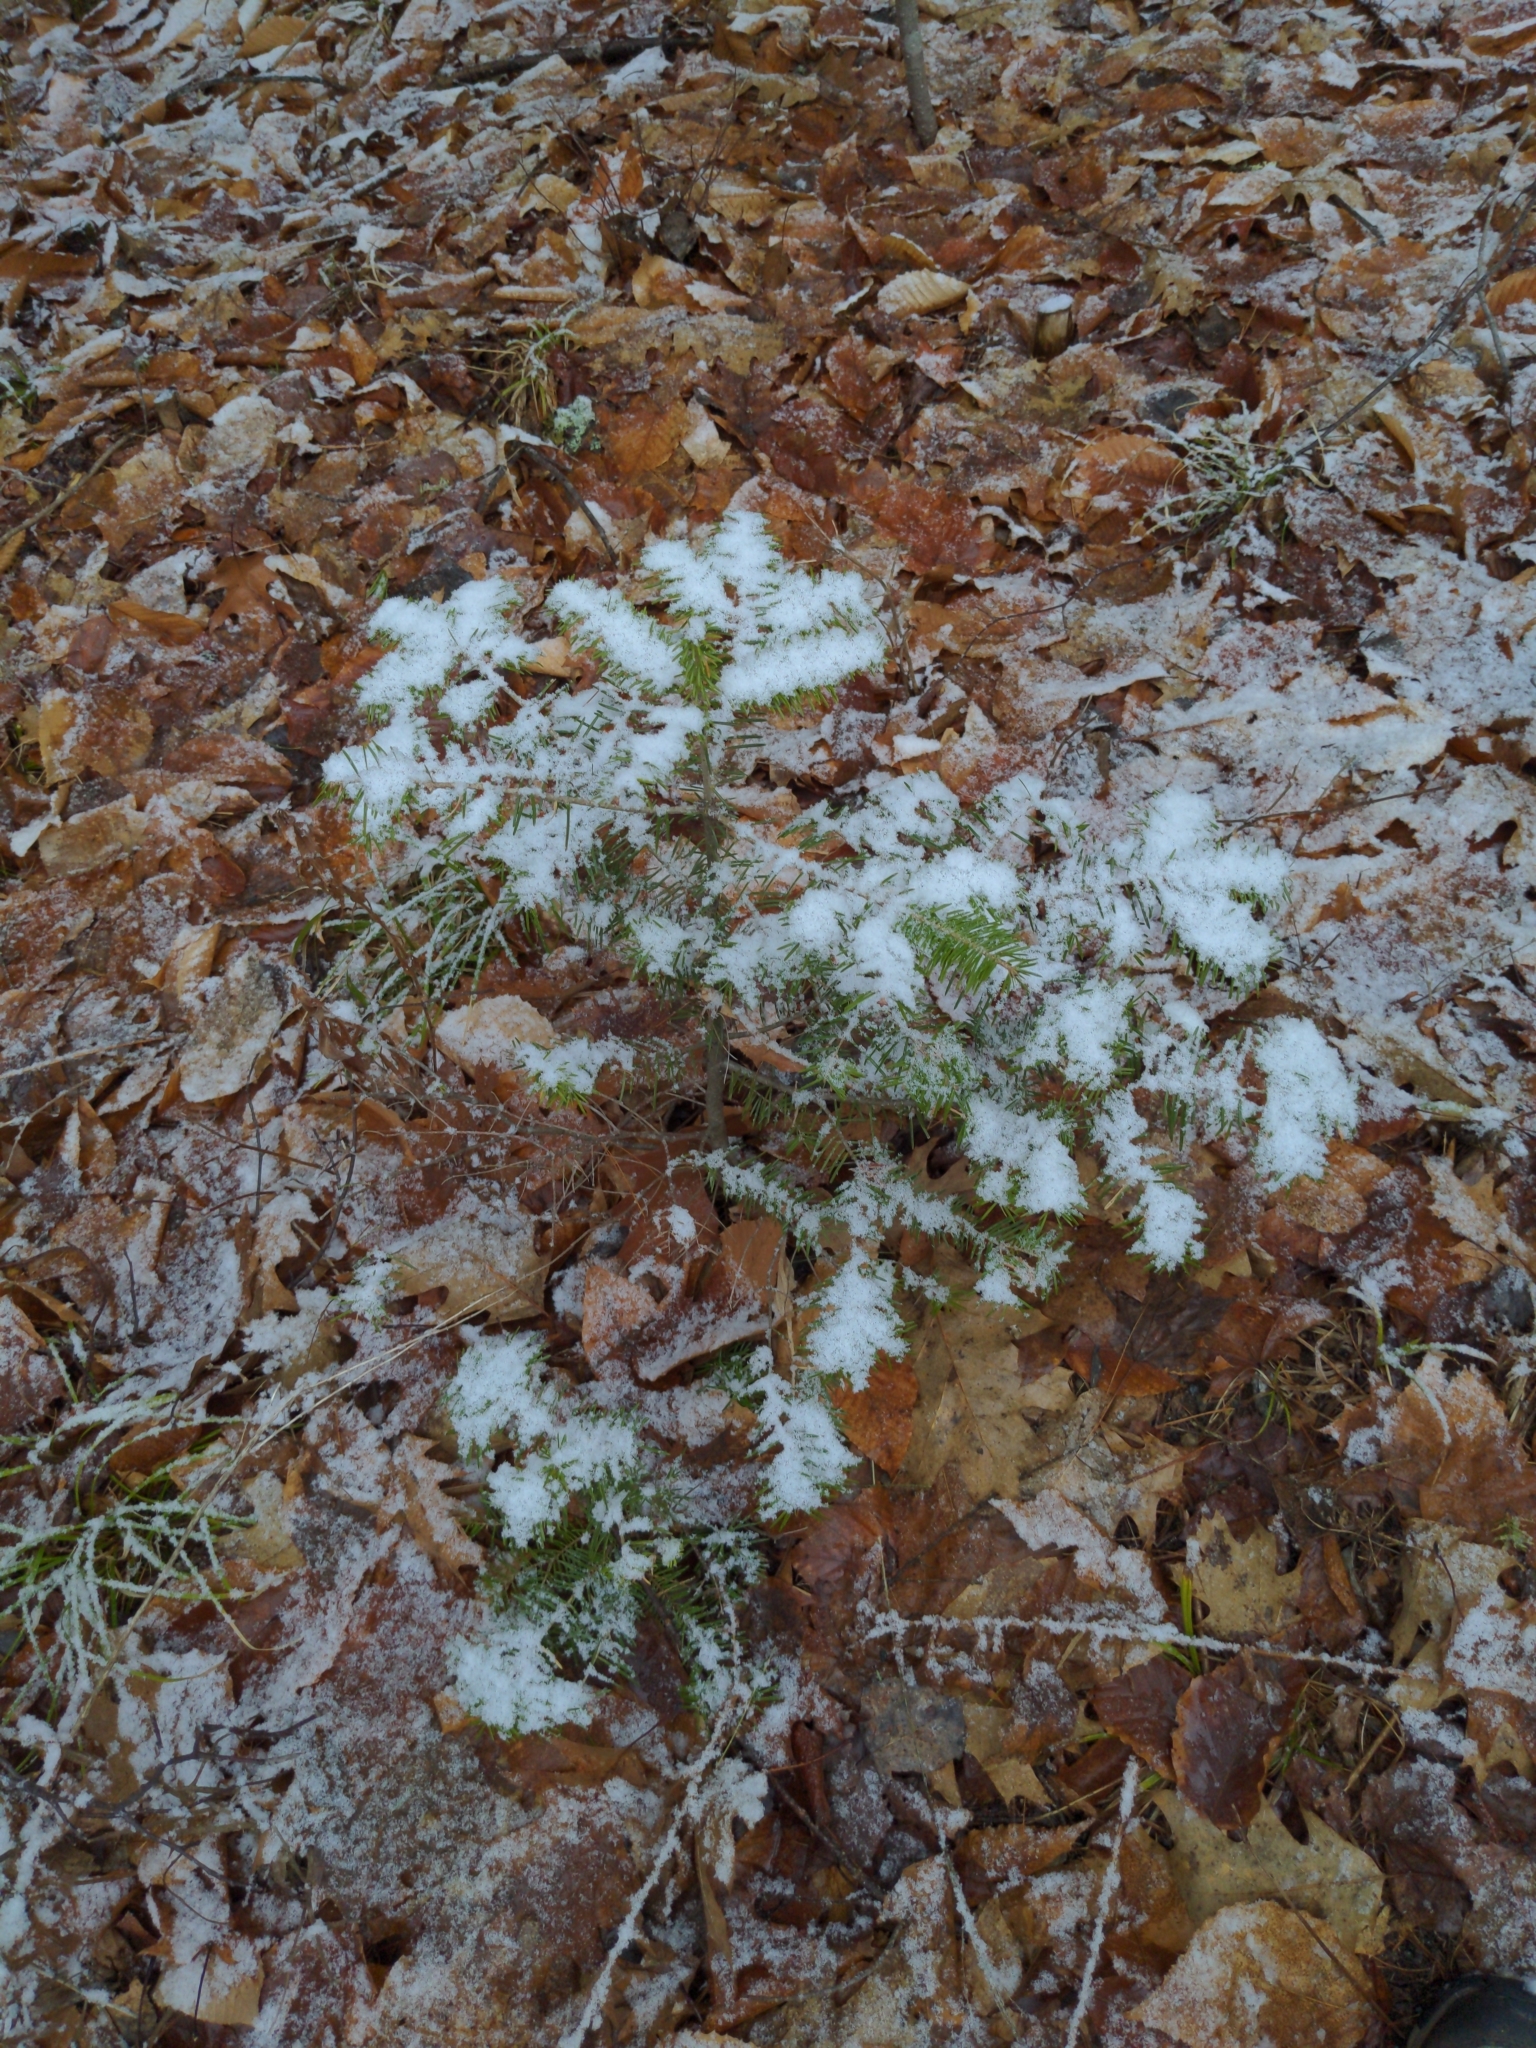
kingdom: Plantae
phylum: Tracheophyta
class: Pinopsida
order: Pinales
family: Pinaceae
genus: Abies
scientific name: Abies balsamea
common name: Balsam fir
